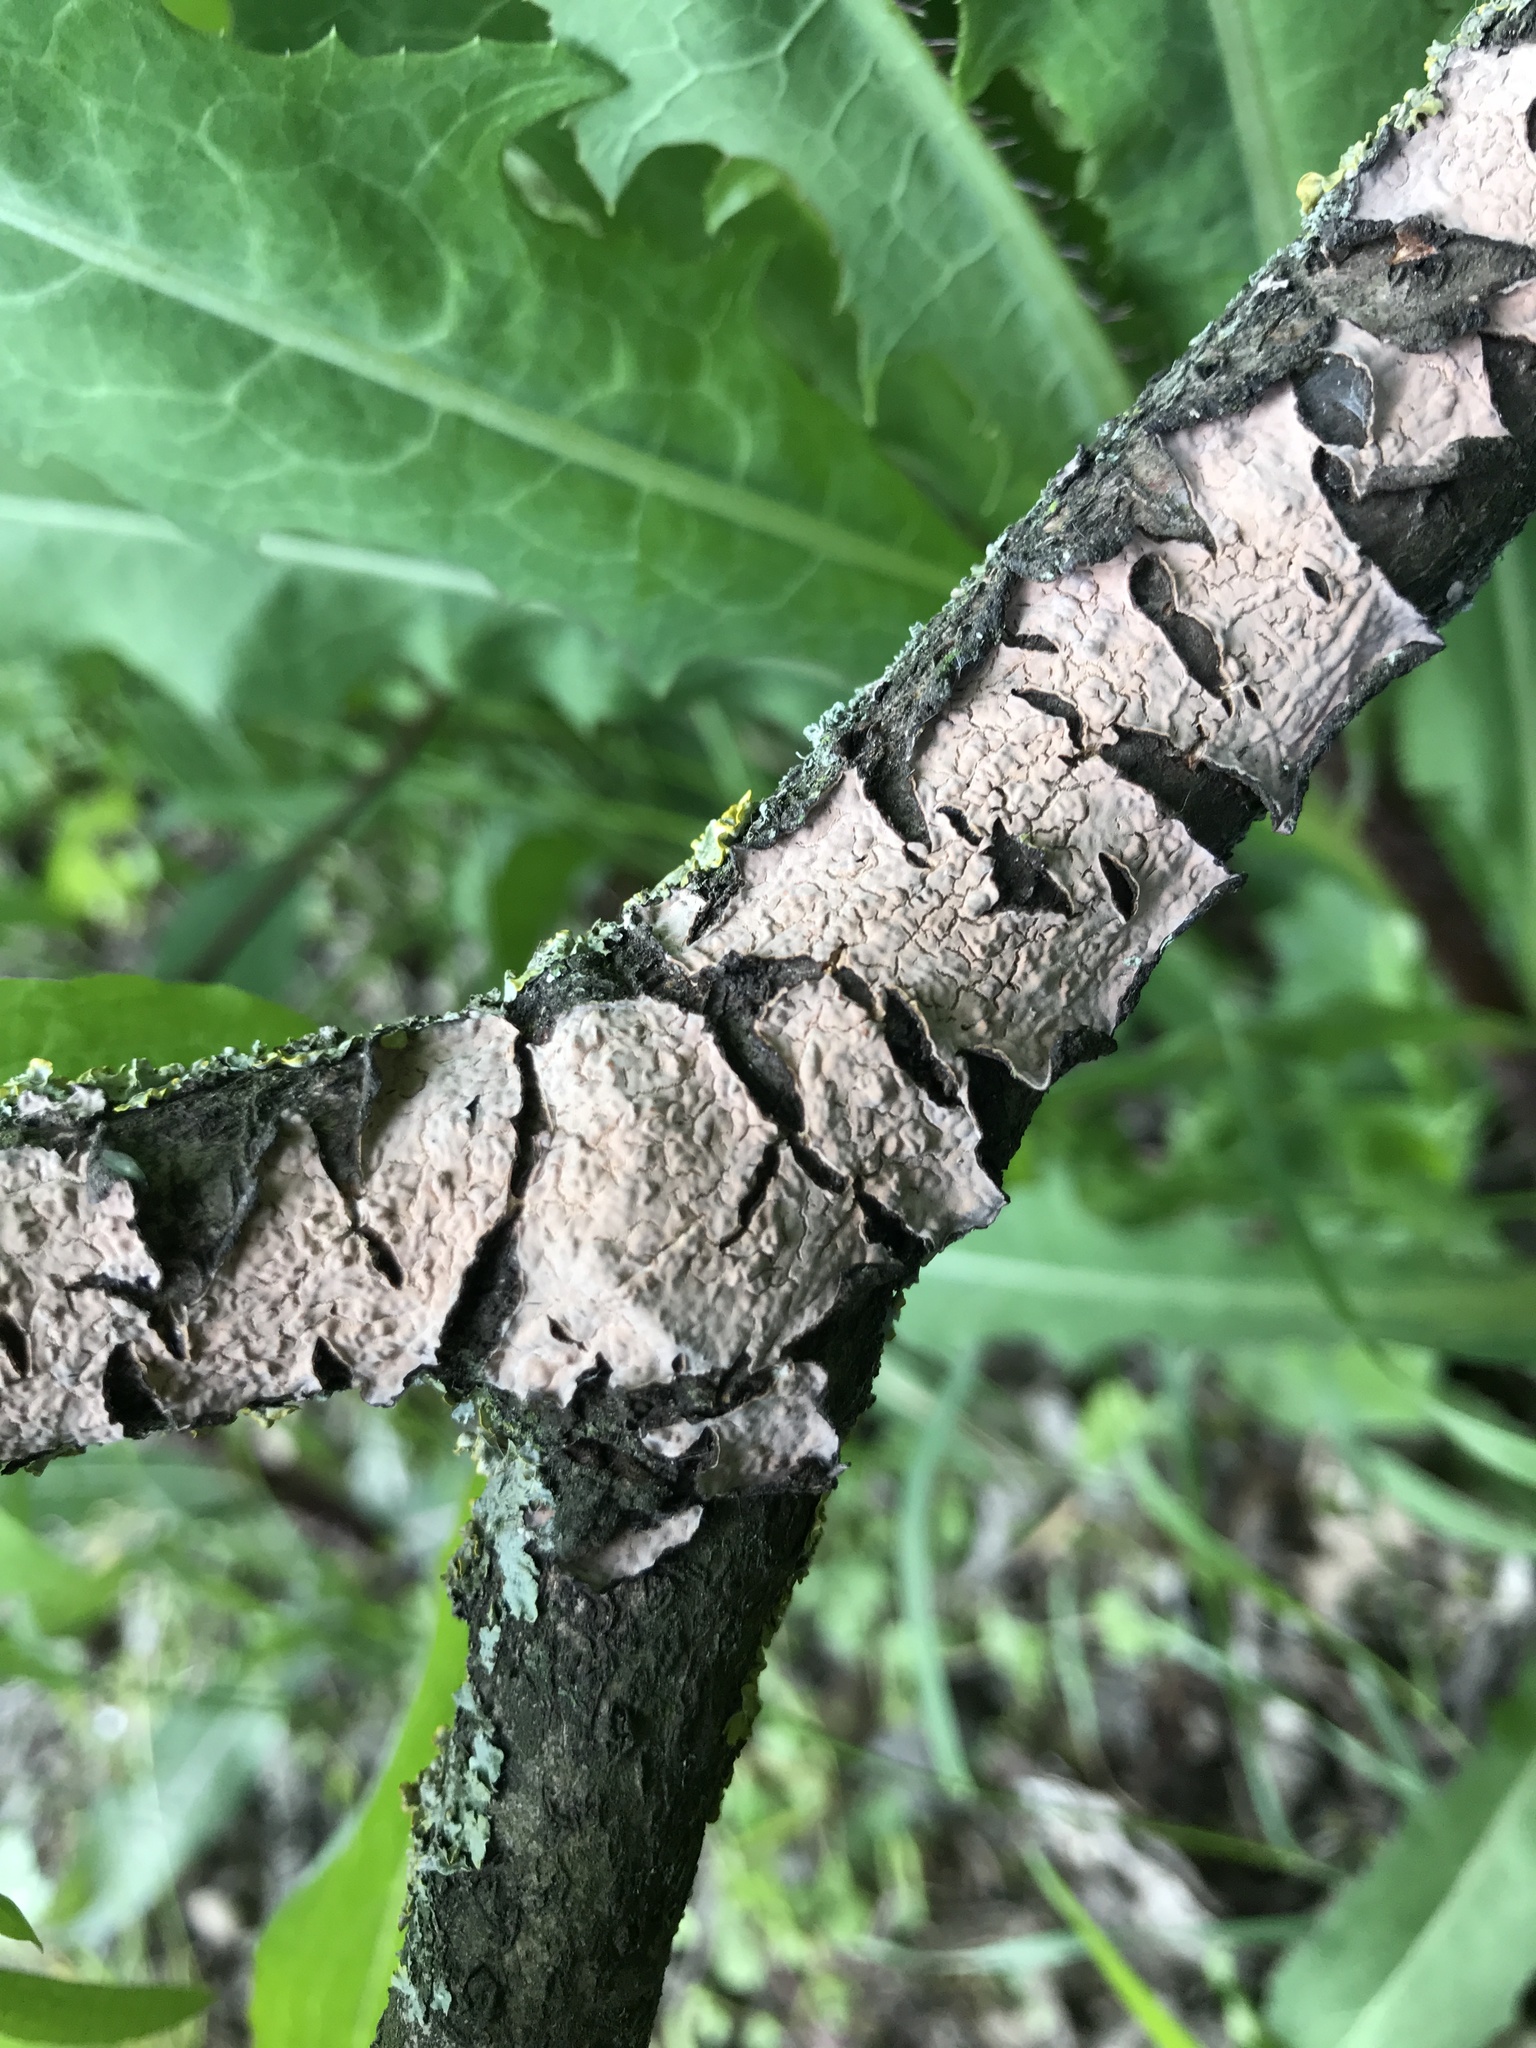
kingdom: Fungi
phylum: Basidiomycota
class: Agaricomycetes
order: Russulales
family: Peniophoraceae
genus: Peniophora
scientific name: Peniophora quercina
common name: Oak crust
